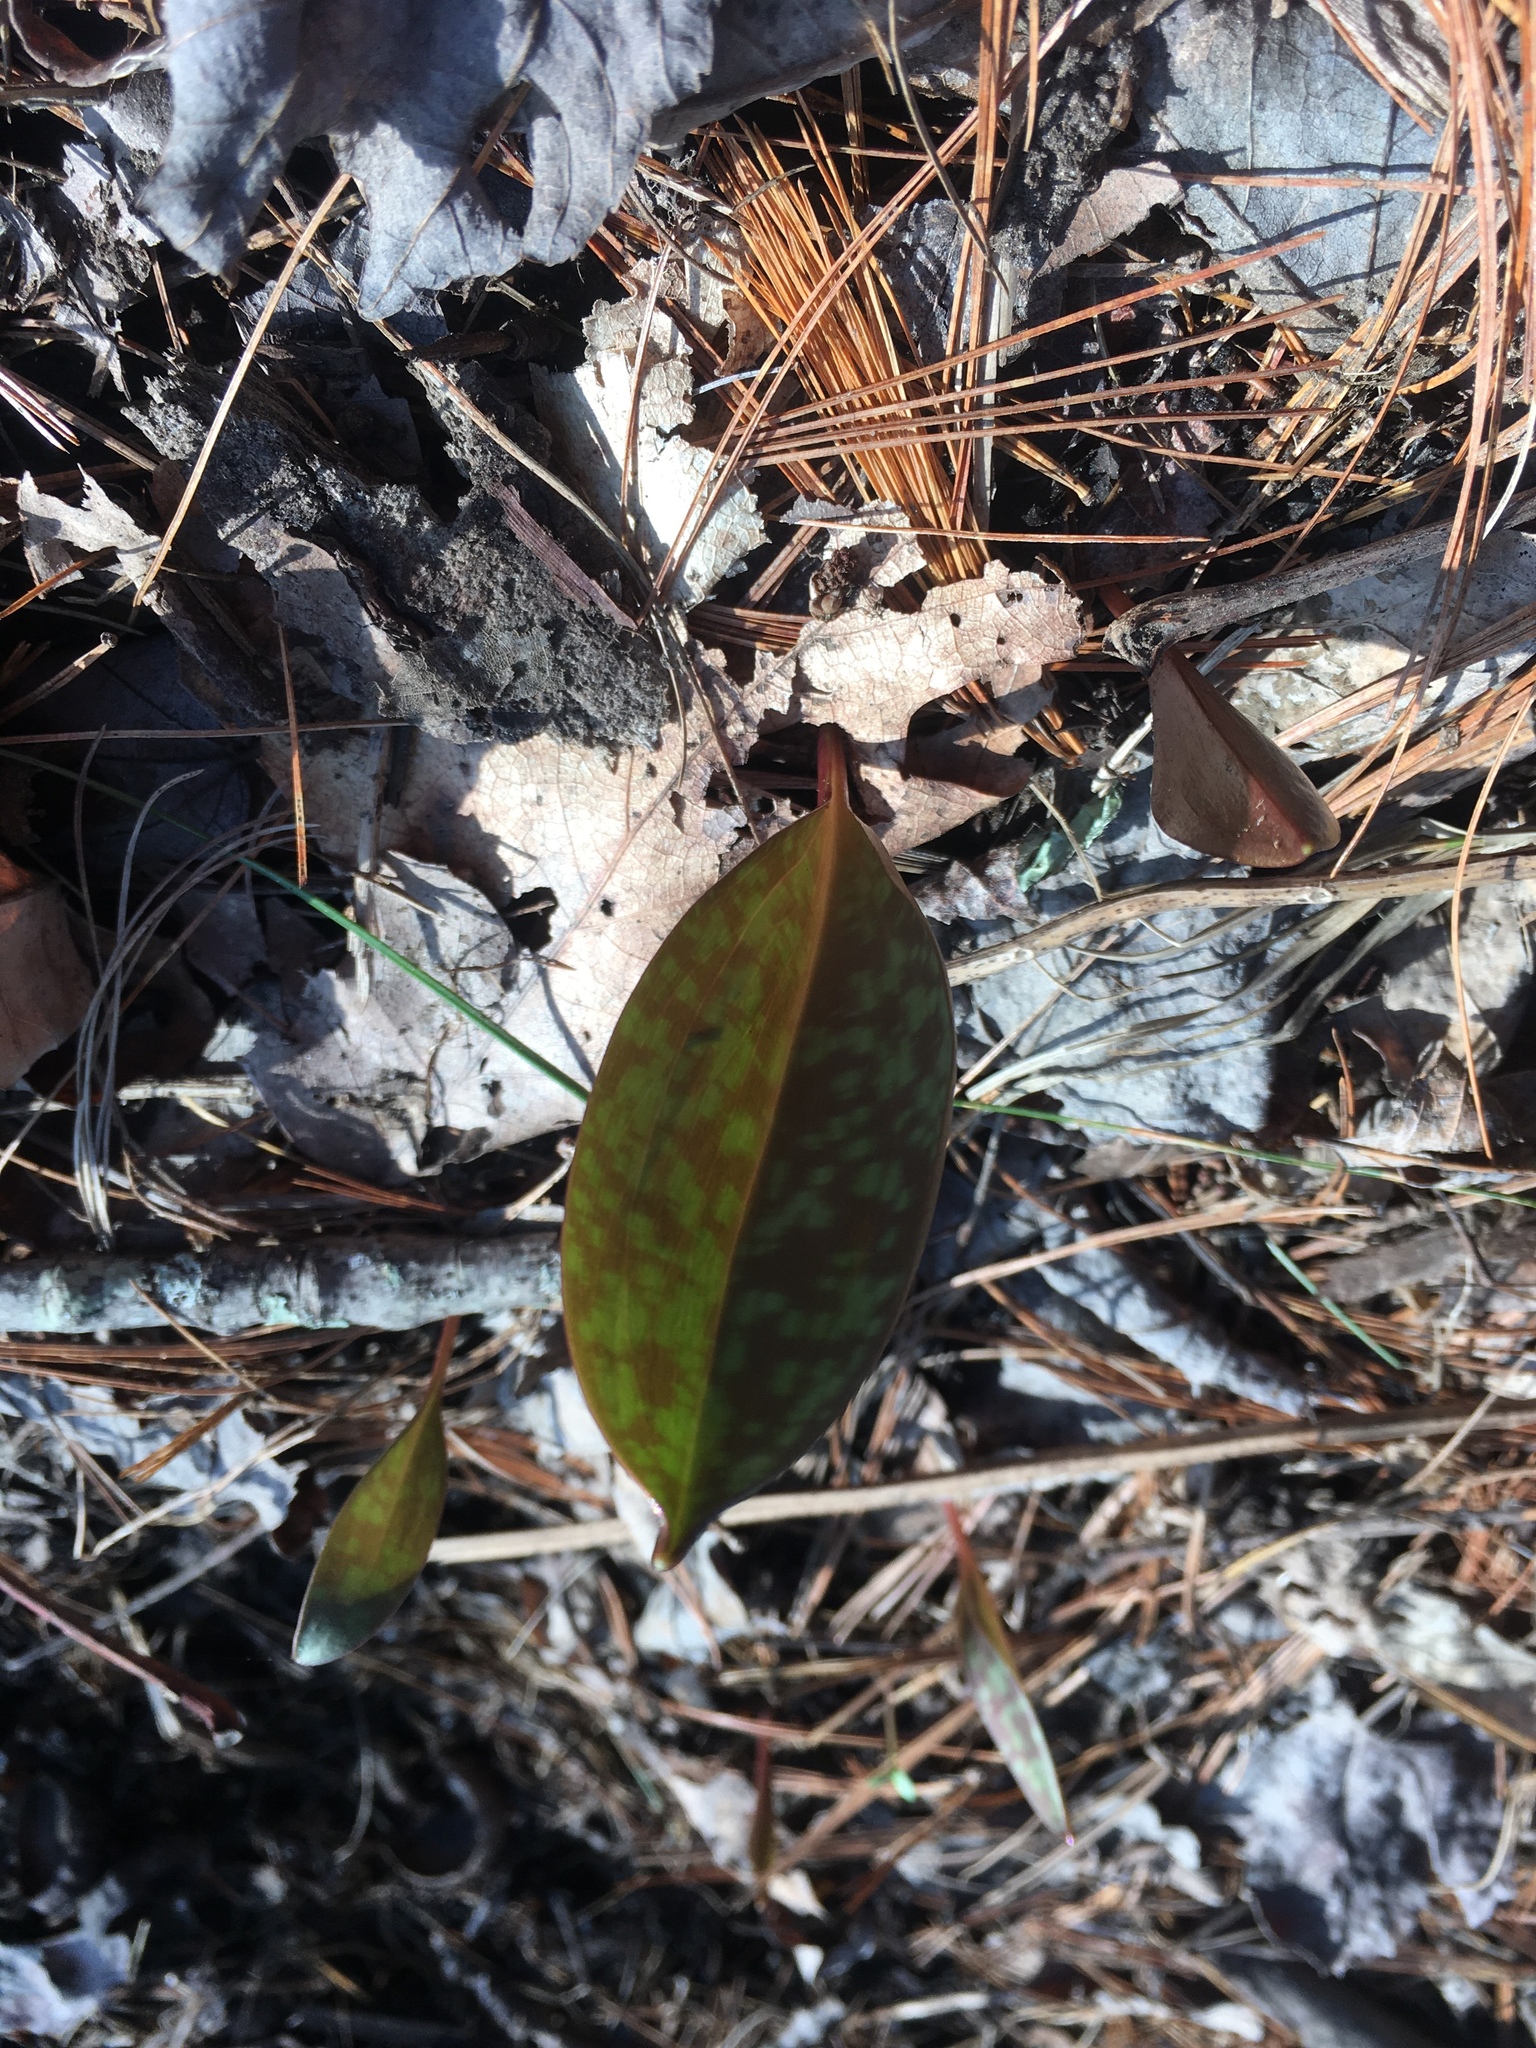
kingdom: Plantae
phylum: Tracheophyta
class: Liliopsida
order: Liliales
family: Liliaceae
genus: Erythronium
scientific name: Erythronium americanum
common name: Yellow adder's-tongue
